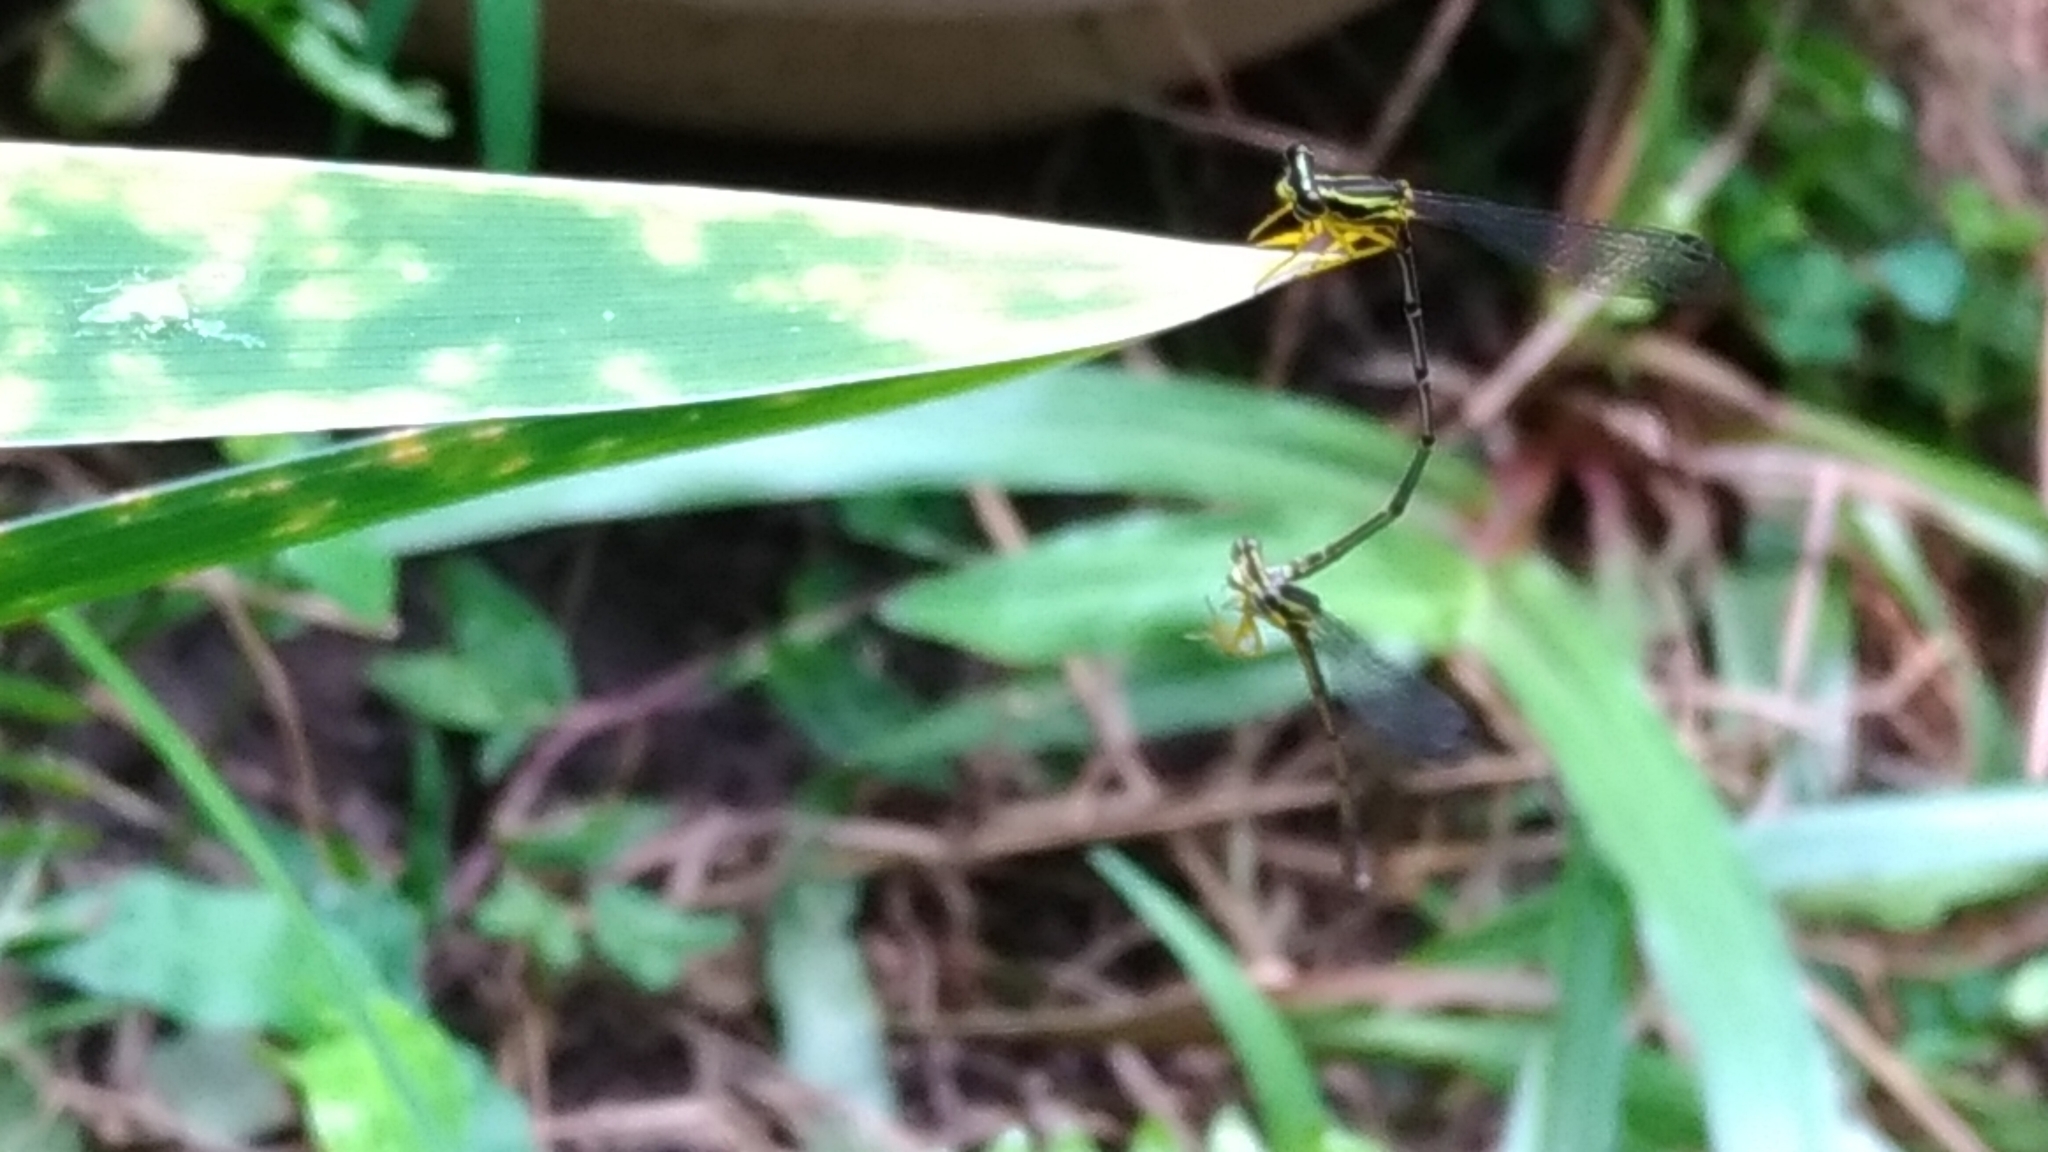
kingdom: Animalia
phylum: Arthropoda
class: Insecta
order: Odonata
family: Platycnemididae
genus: Copera
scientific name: Copera marginipes
